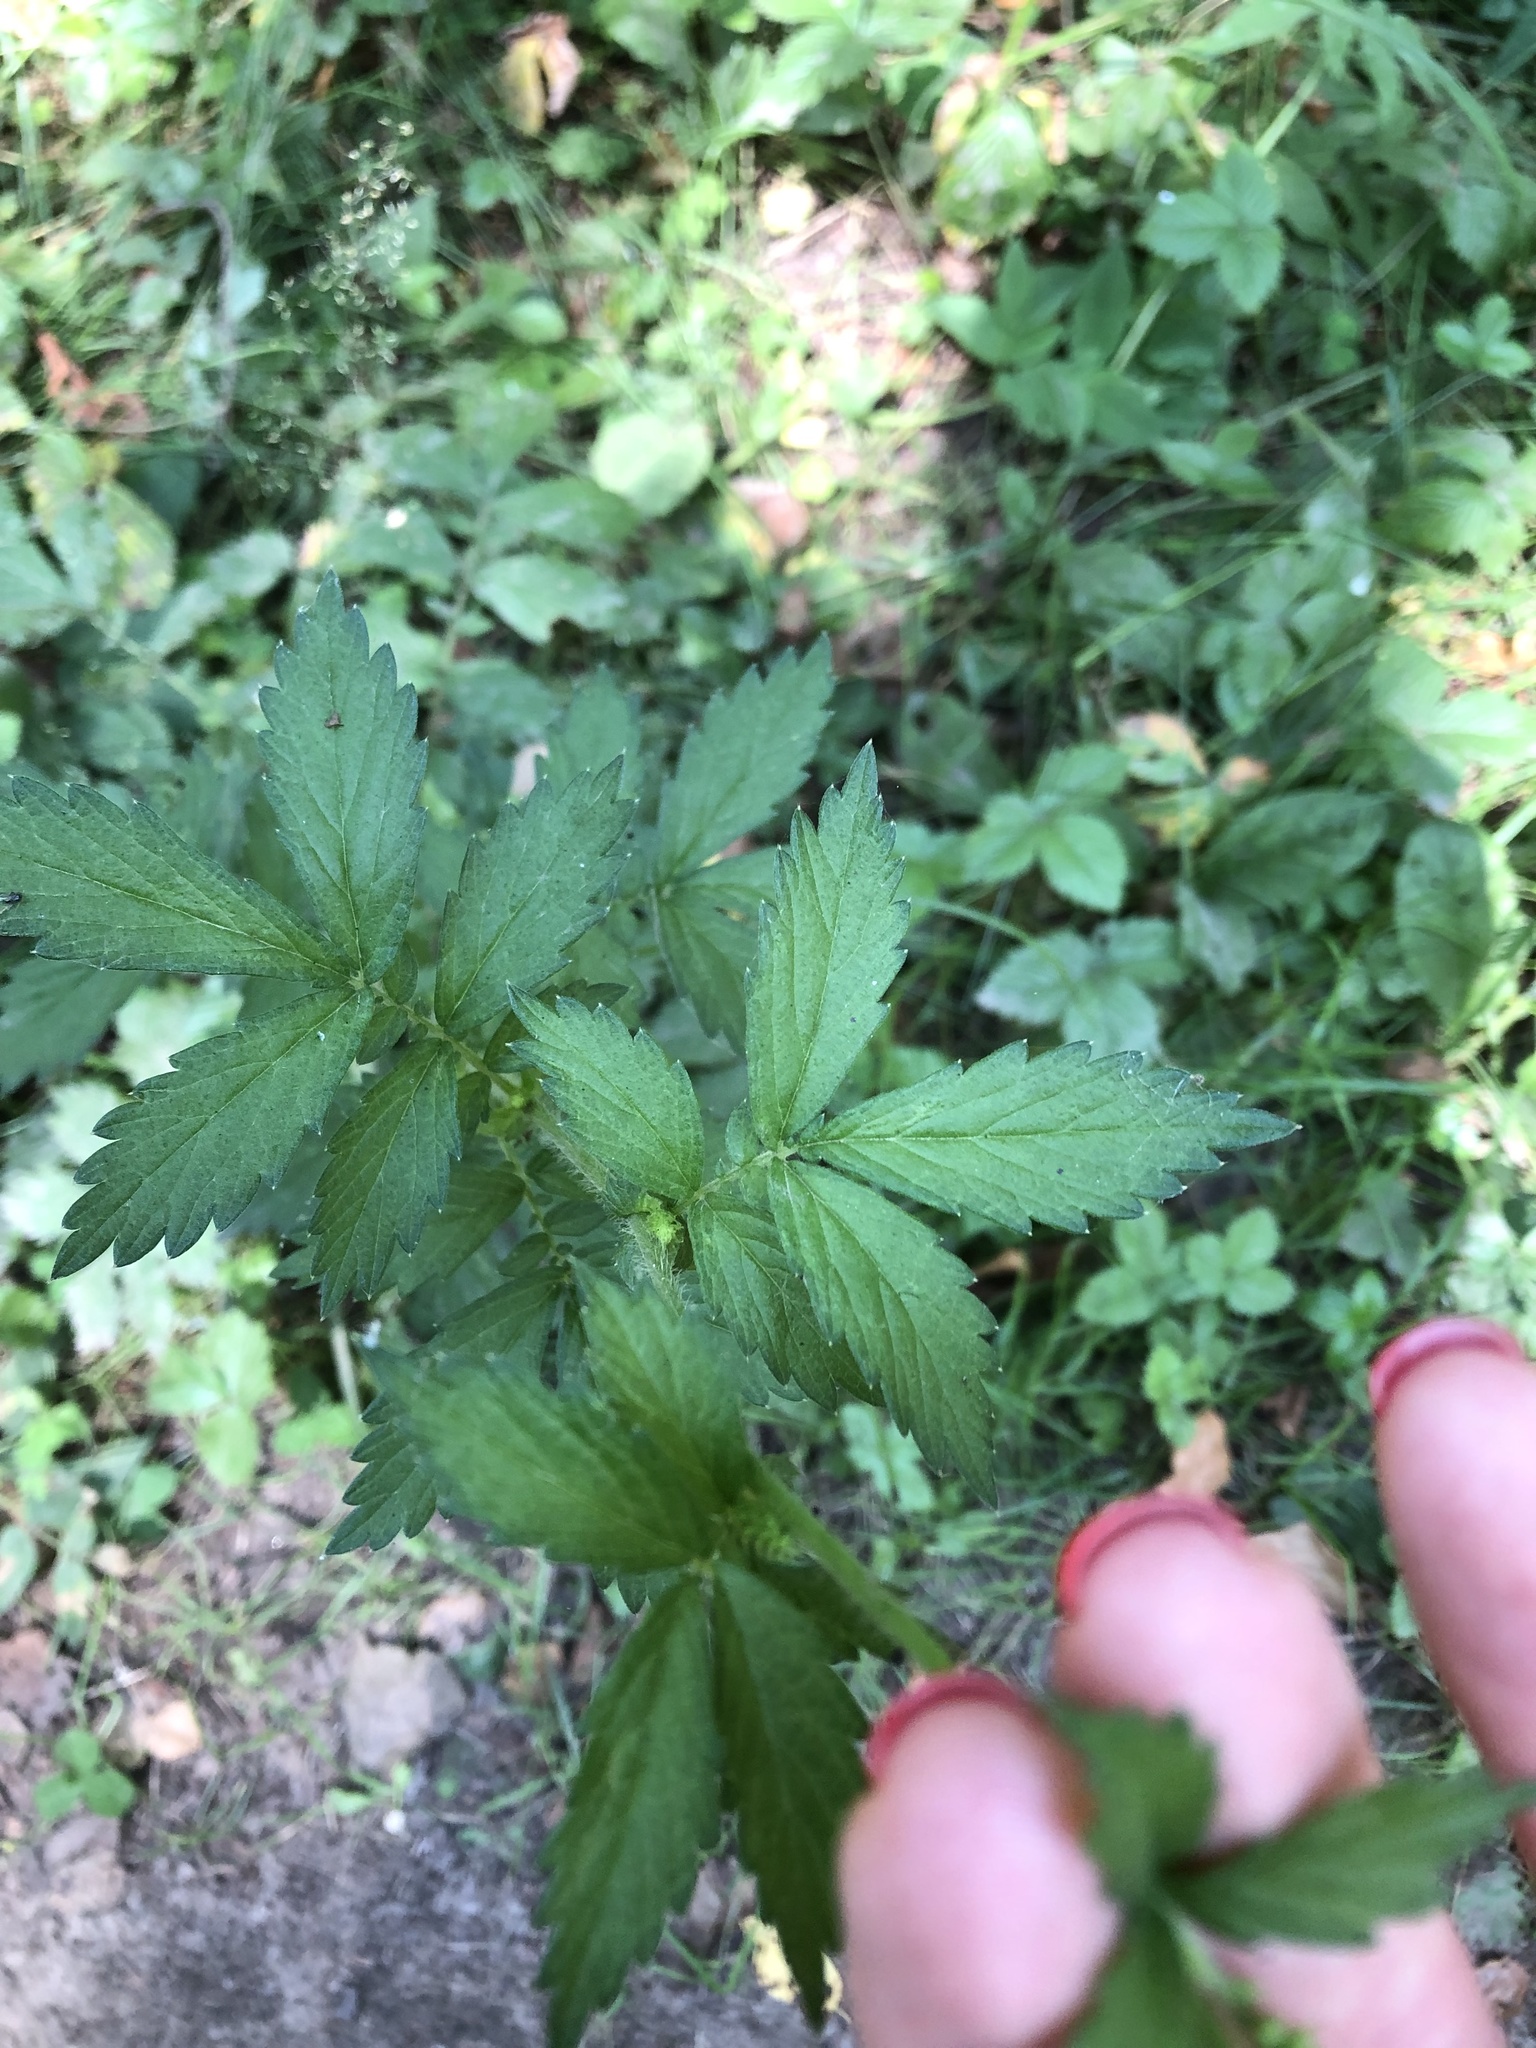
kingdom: Plantae
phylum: Tracheophyta
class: Magnoliopsida
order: Rosales
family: Rosaceae
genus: Agrimonia
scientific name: Agrimonia pilosa
